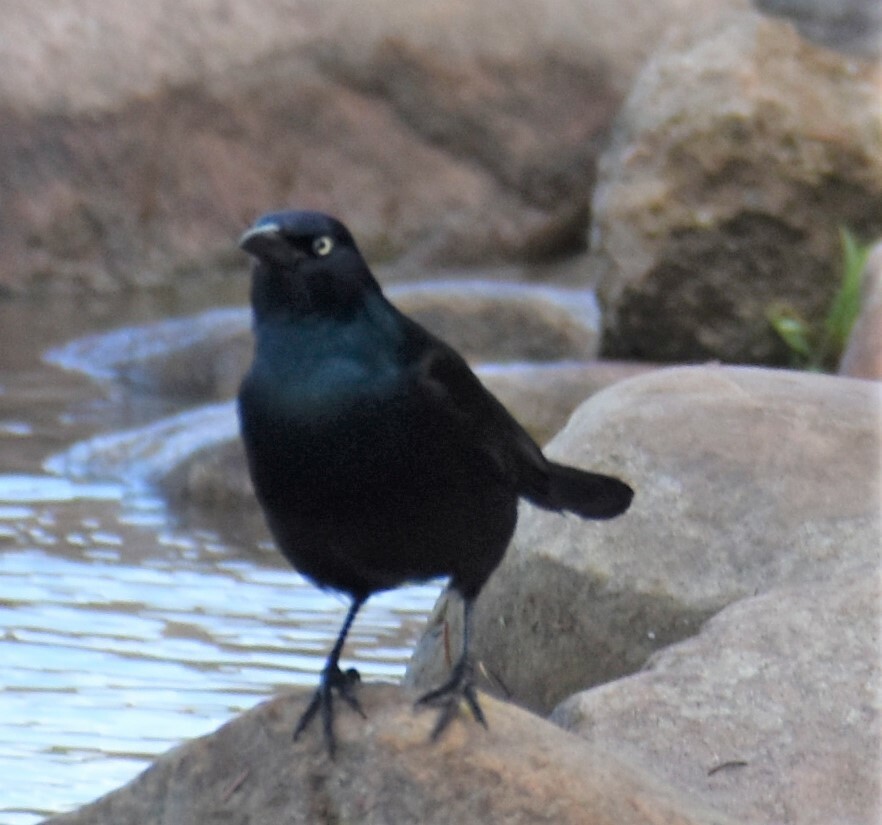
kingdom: Animalia
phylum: Chordata
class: Aves
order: Passeriformes
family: Icteridae
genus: Quiscalus
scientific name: Quiscalus quiscula
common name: Common grackle
